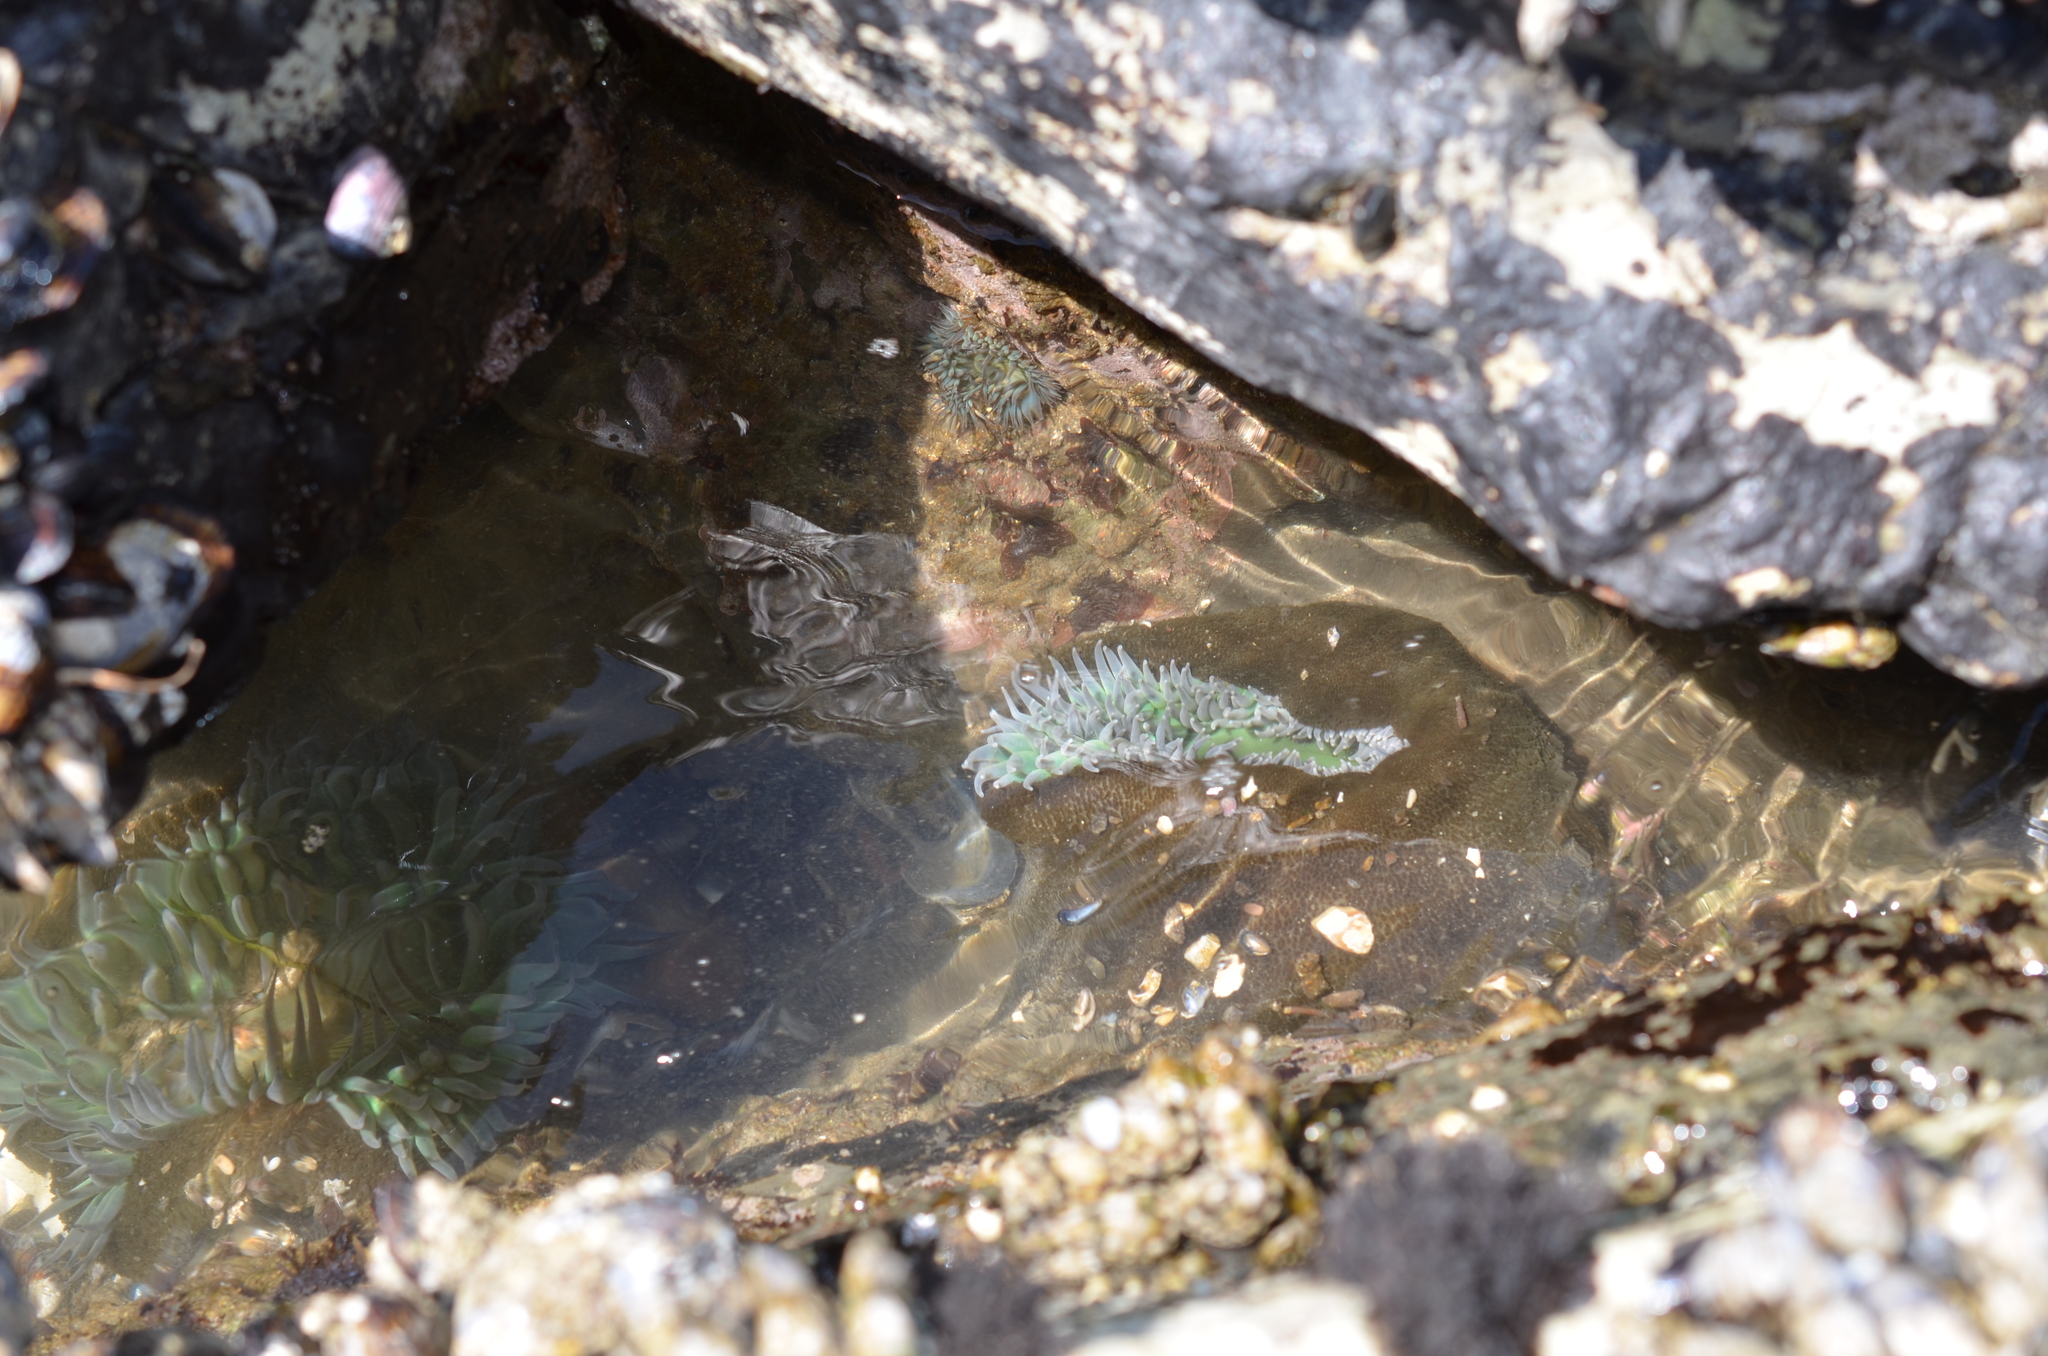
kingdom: Animalia
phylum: Cnidaria
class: Anthozoa
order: Actiniaria
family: Actiniidae
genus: Anthopleura
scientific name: Anthopleura xanthogrammica
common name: Giant green anemone
